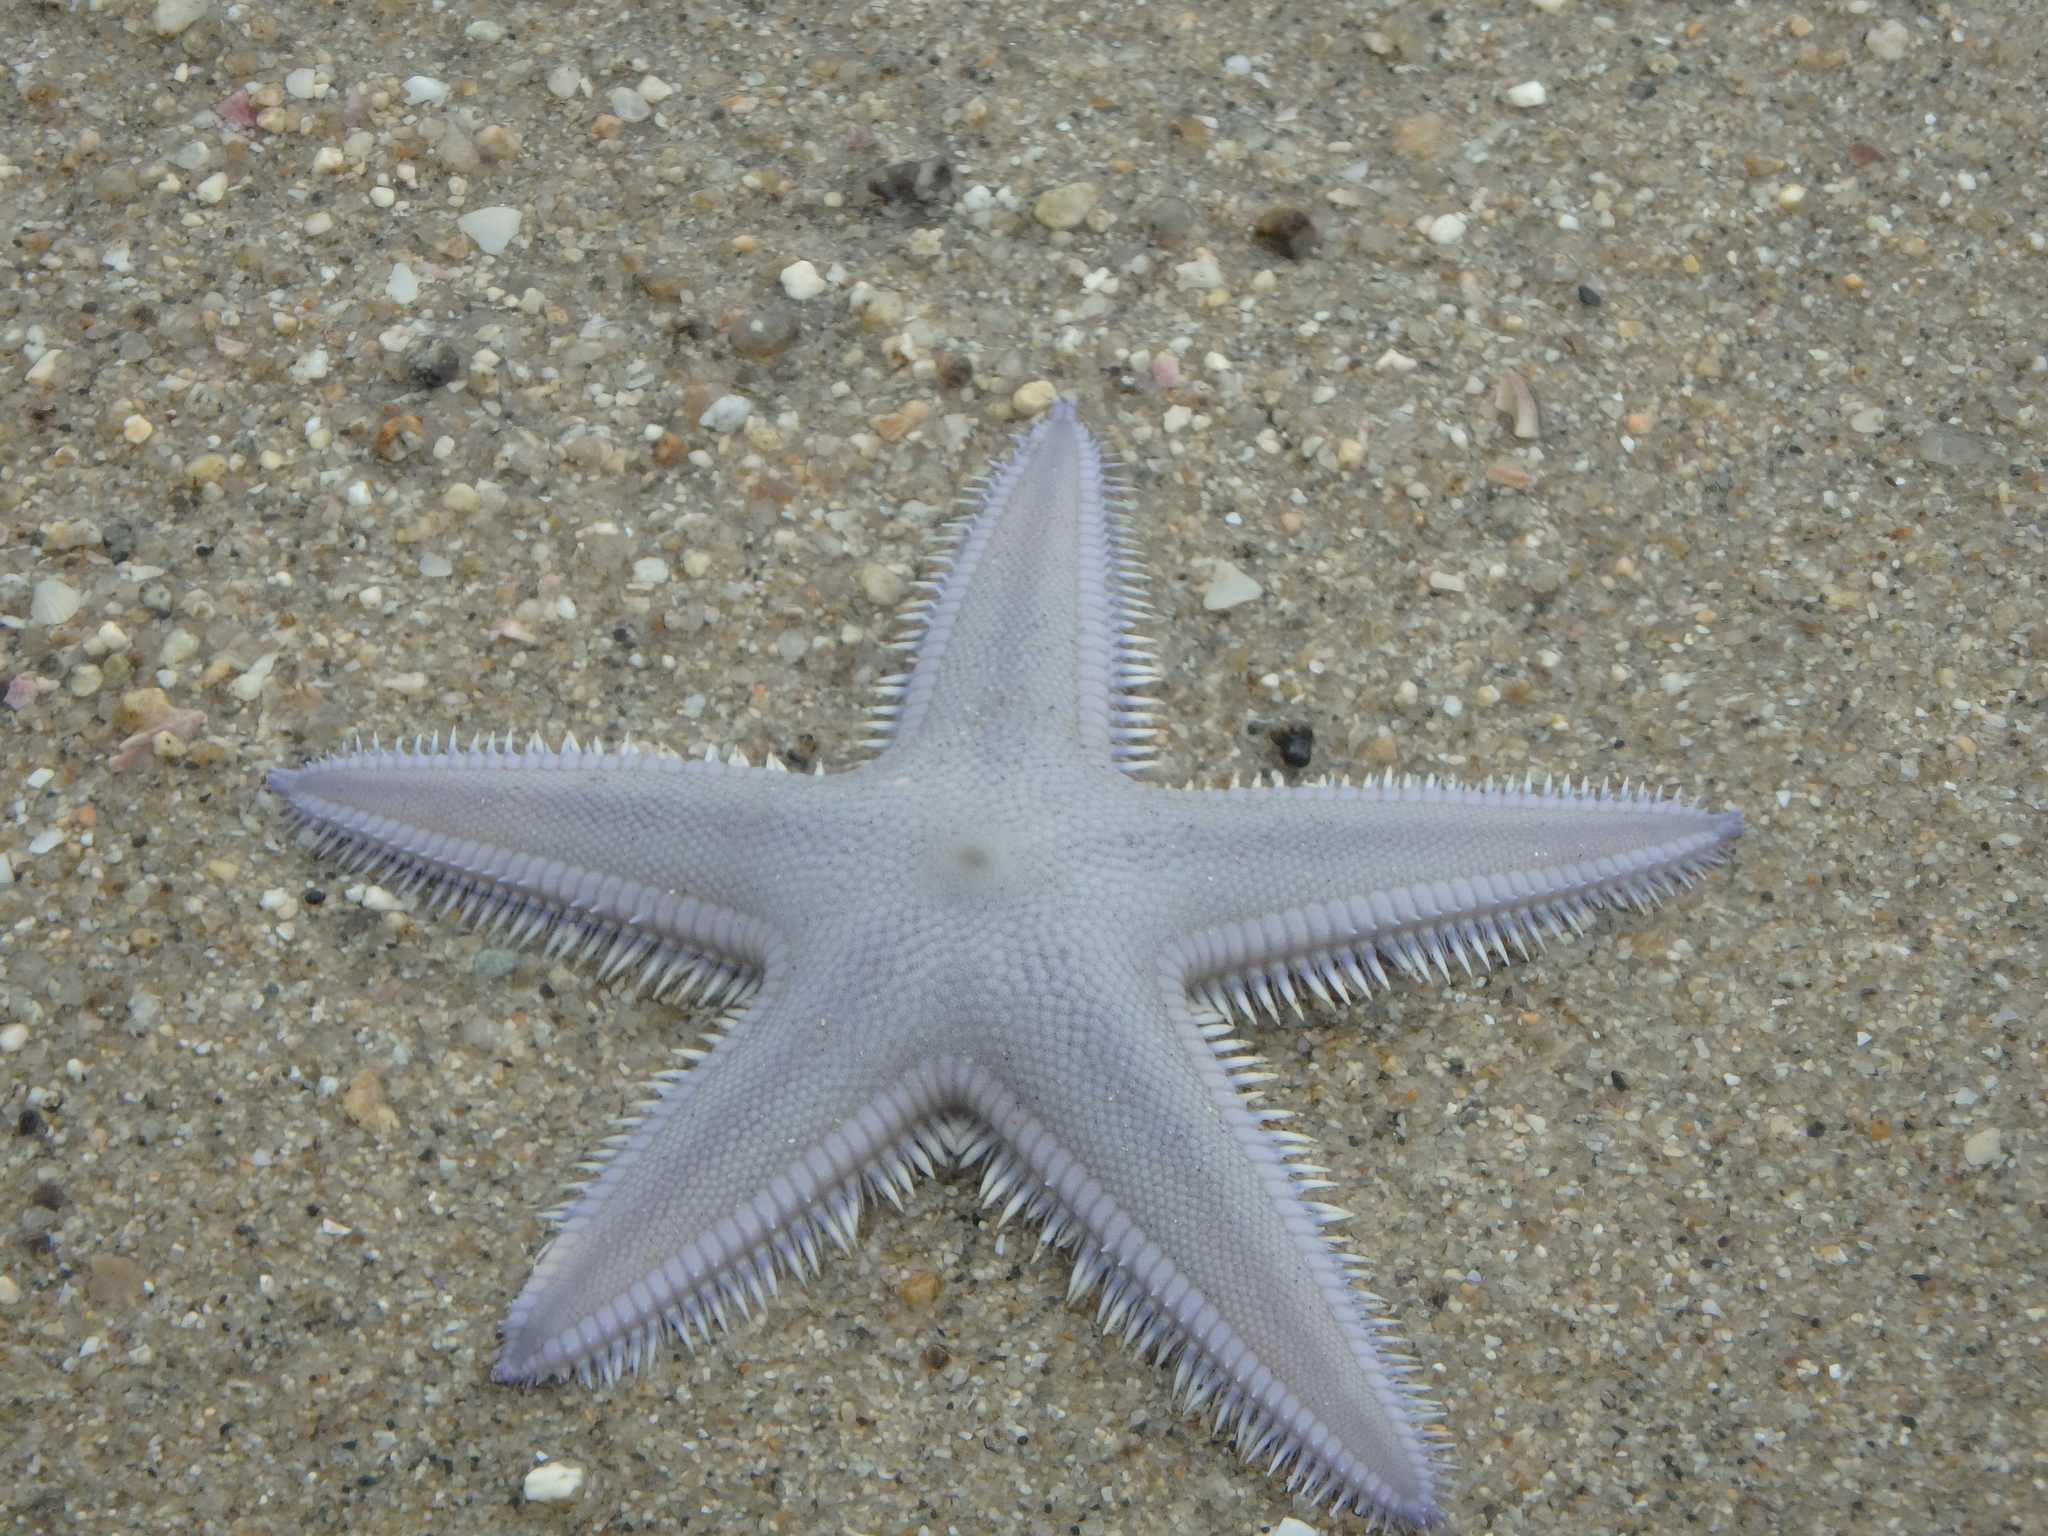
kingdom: Animalia
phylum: Echinodermata
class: Asteroidea
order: Paxillosida
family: Astropectinidae
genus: Astropecten
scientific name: Astropecten scoparius
